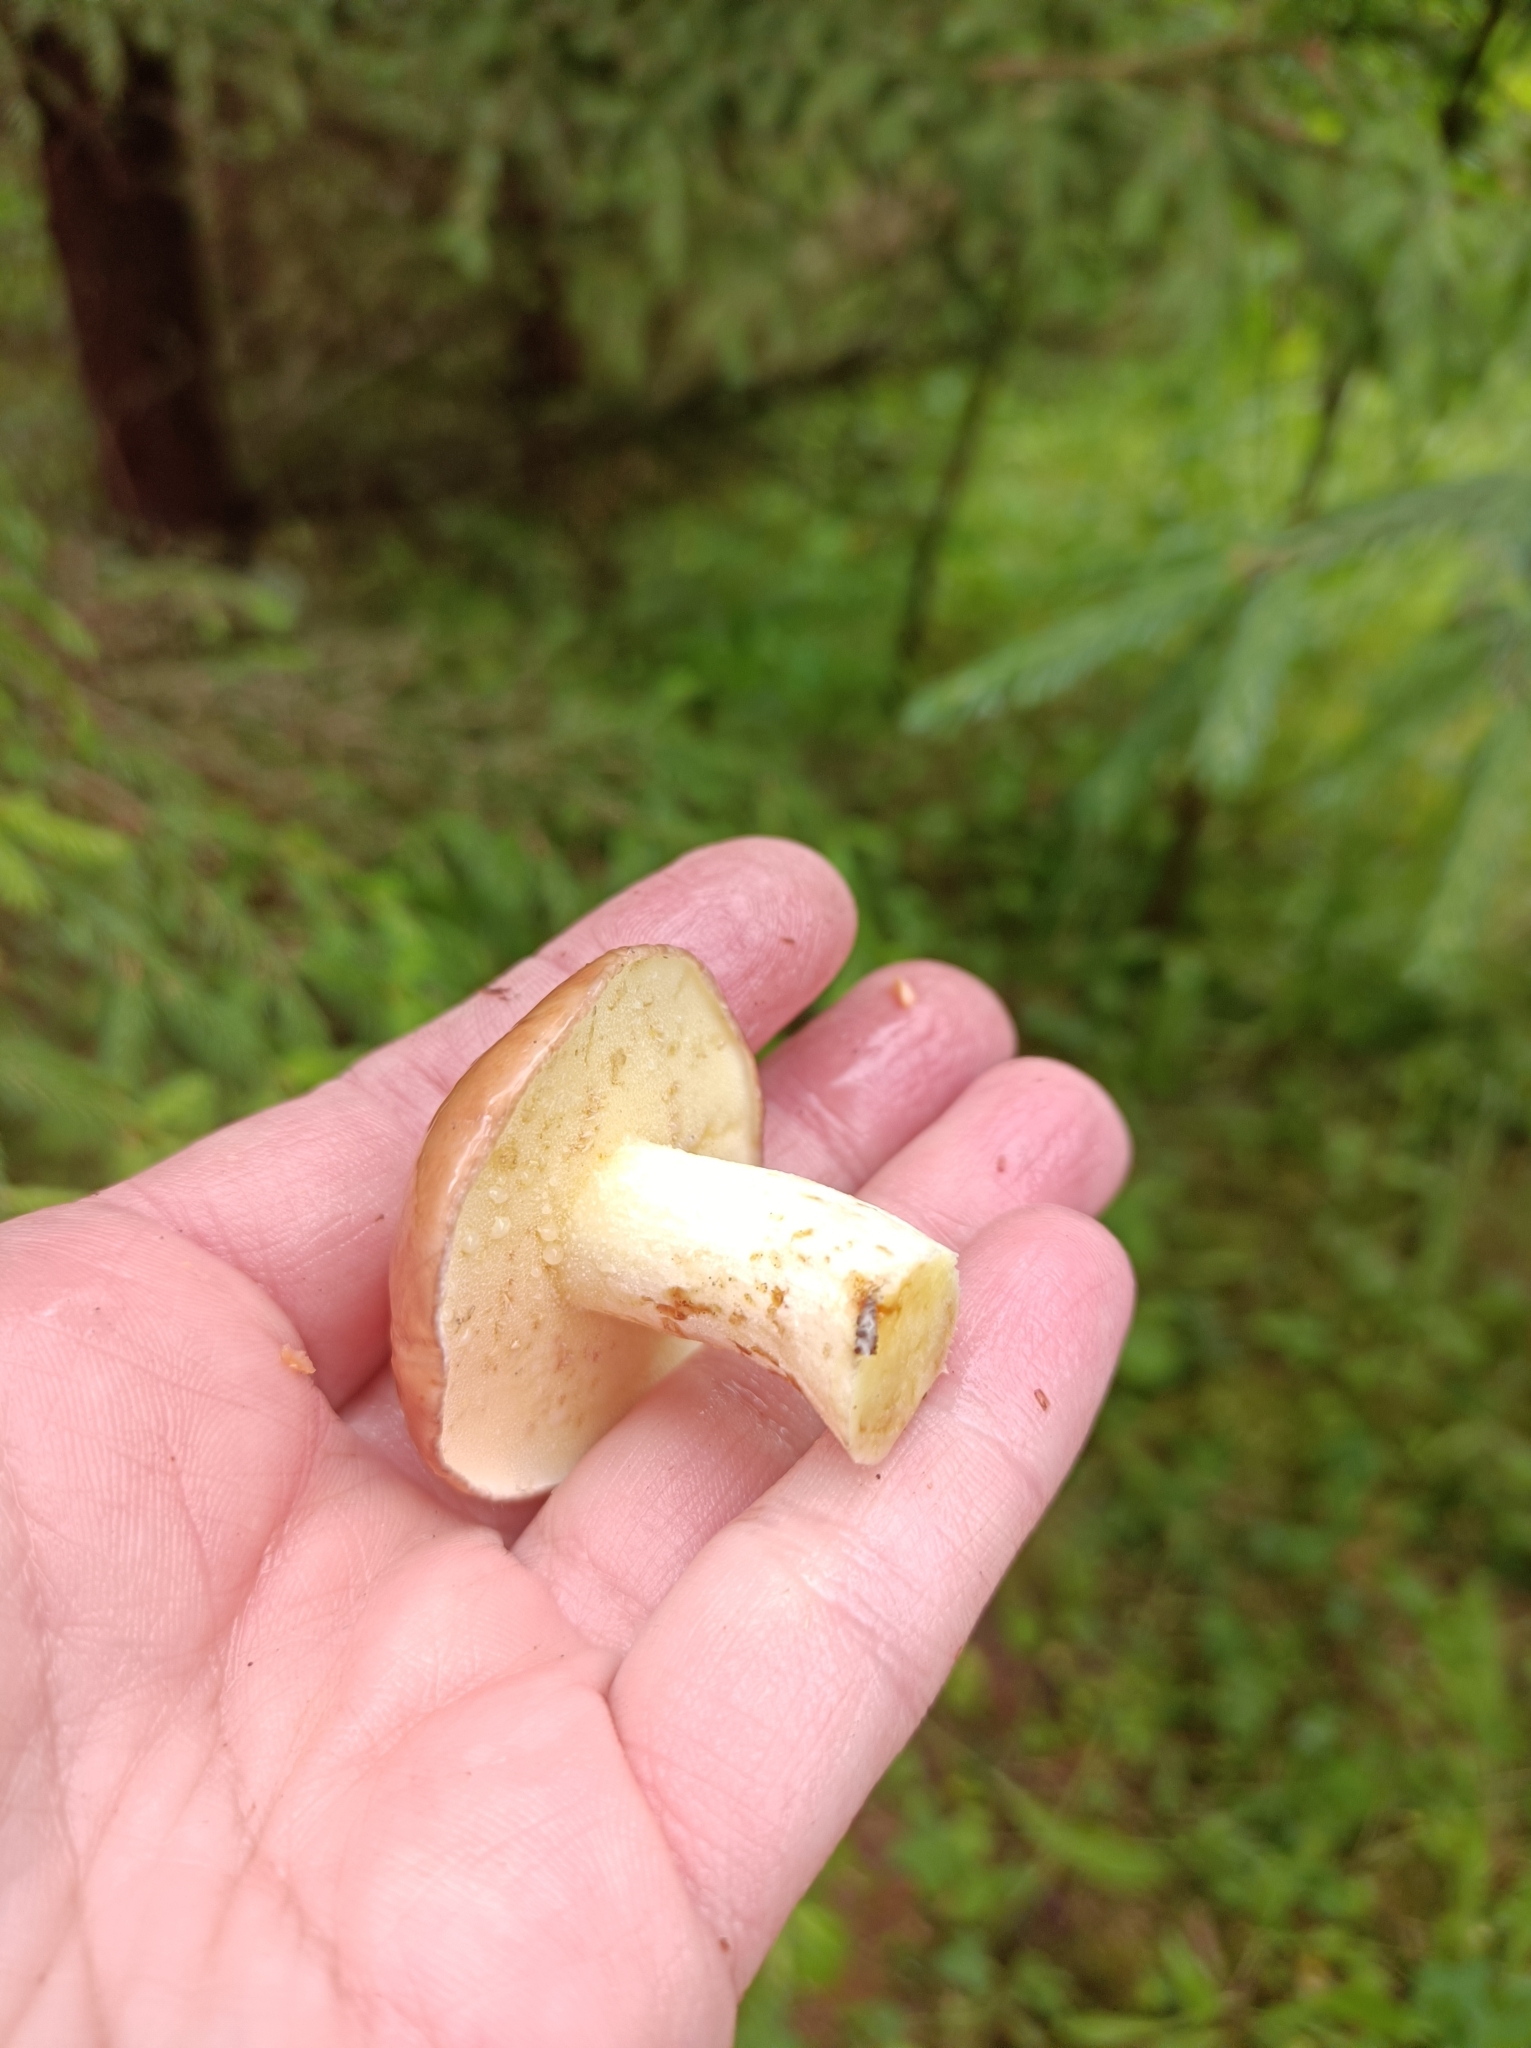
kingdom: Fungi
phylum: Basidiomycota
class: Agaricomycetes
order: Boletales
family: Suillaceae
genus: Suillus
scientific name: Suillus granulatus
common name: Weeping bolete
